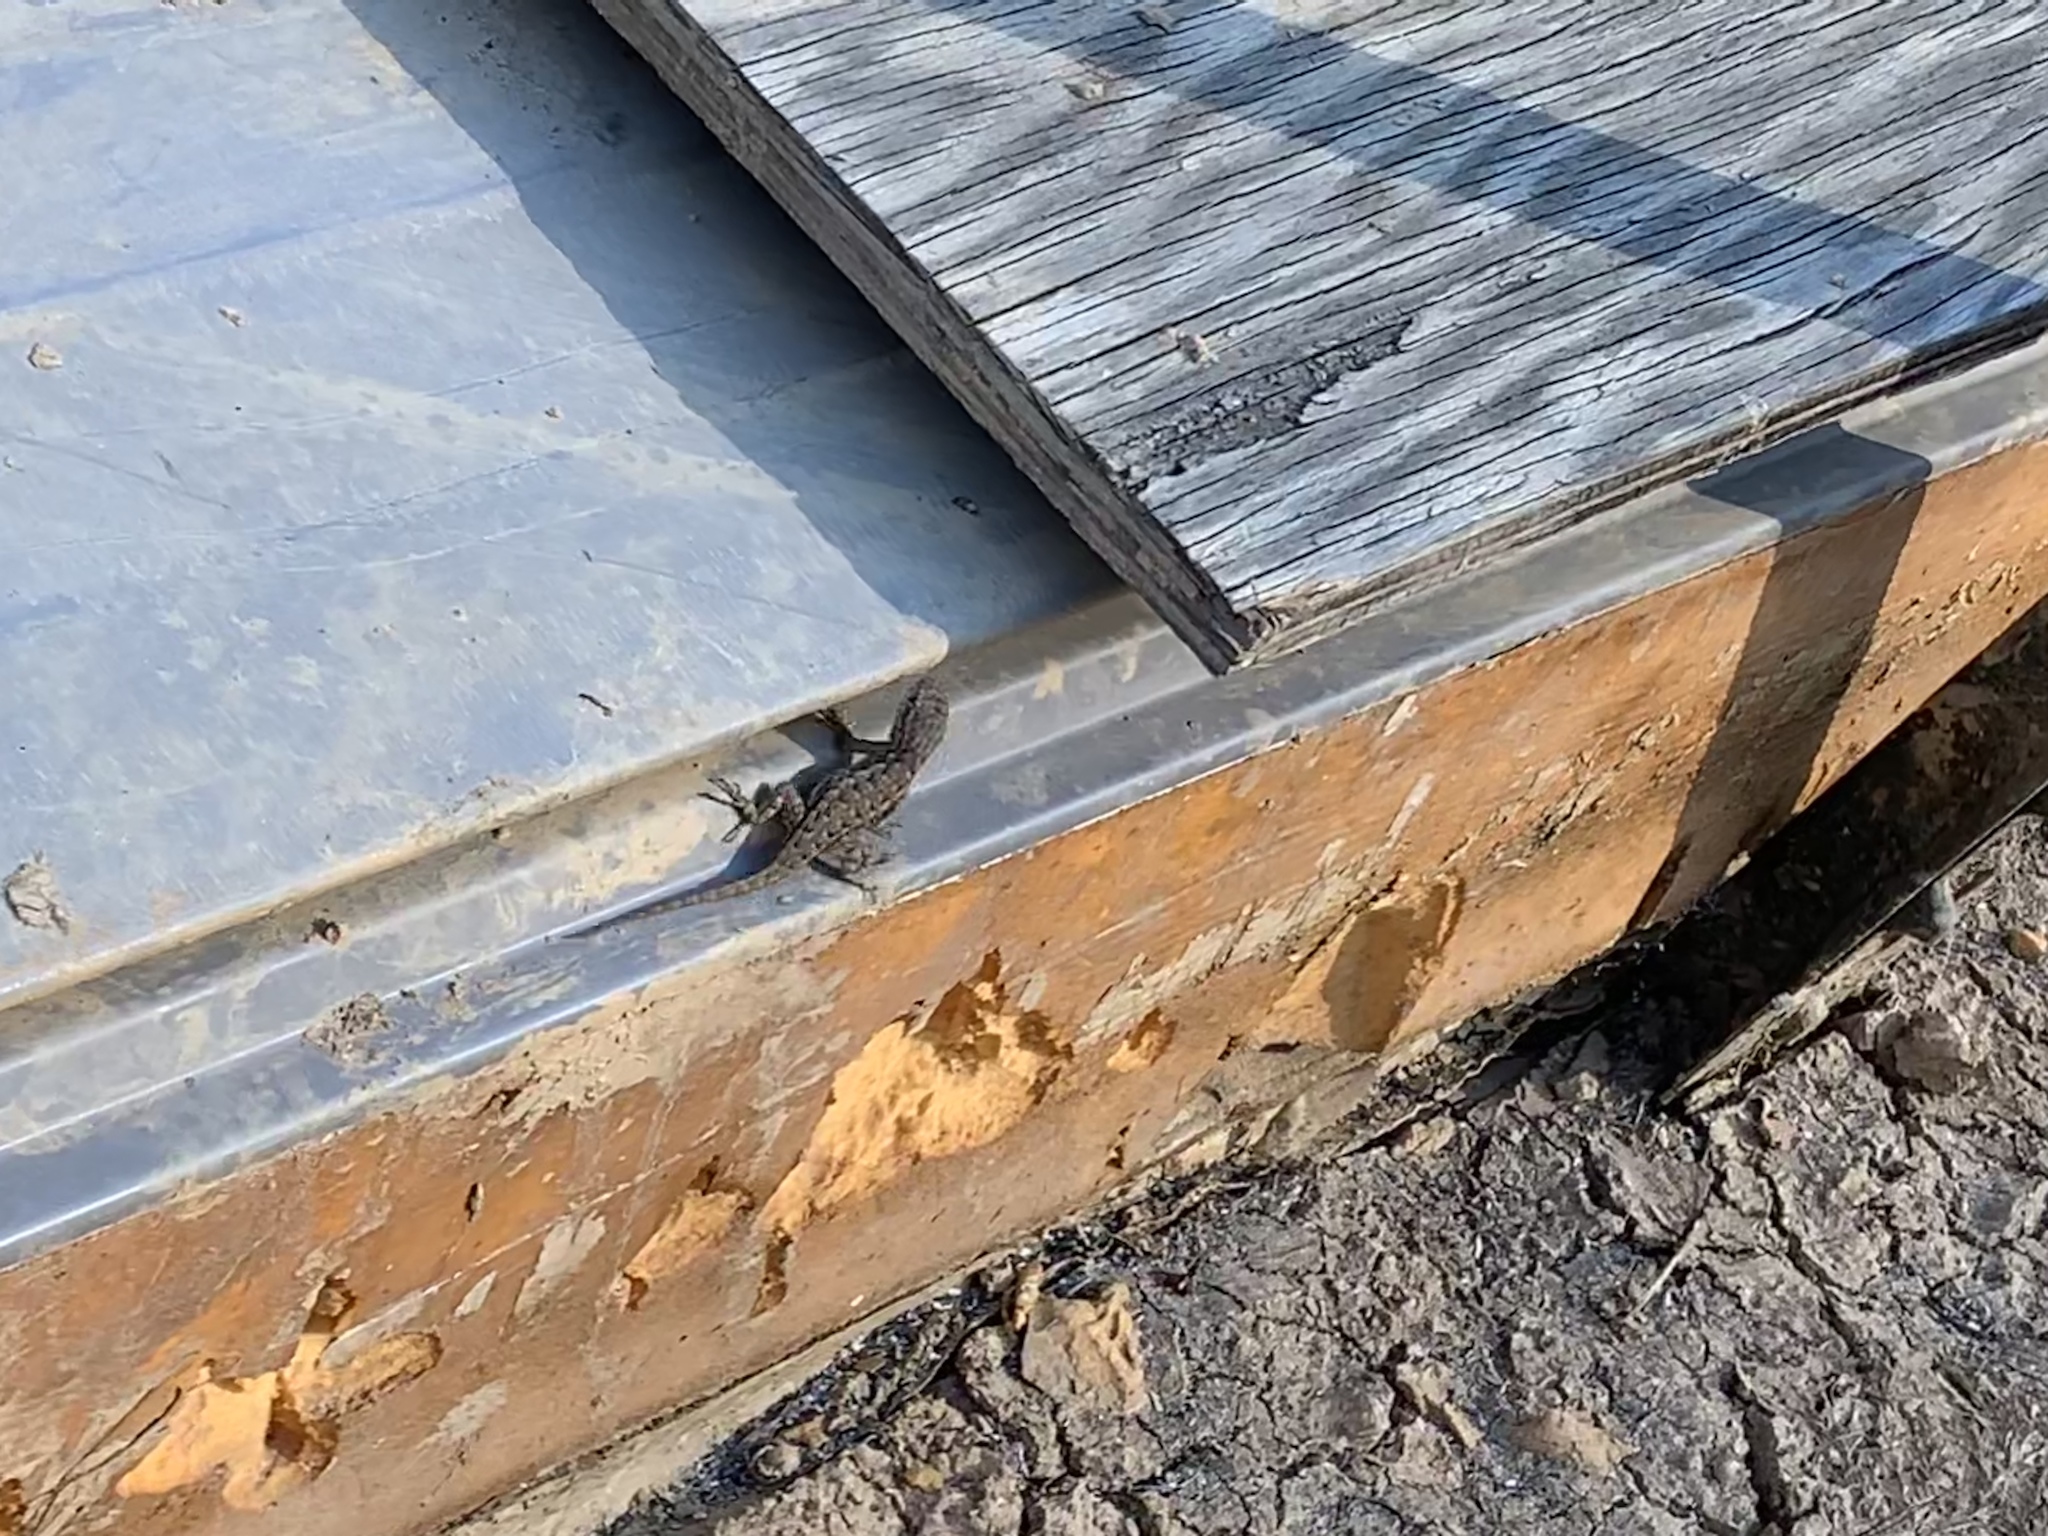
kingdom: Animalia
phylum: Chordata
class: Squamata
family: Phrynosomatidae
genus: Sceloporus
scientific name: Sceloporus occidentalis
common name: Western fence lizard
